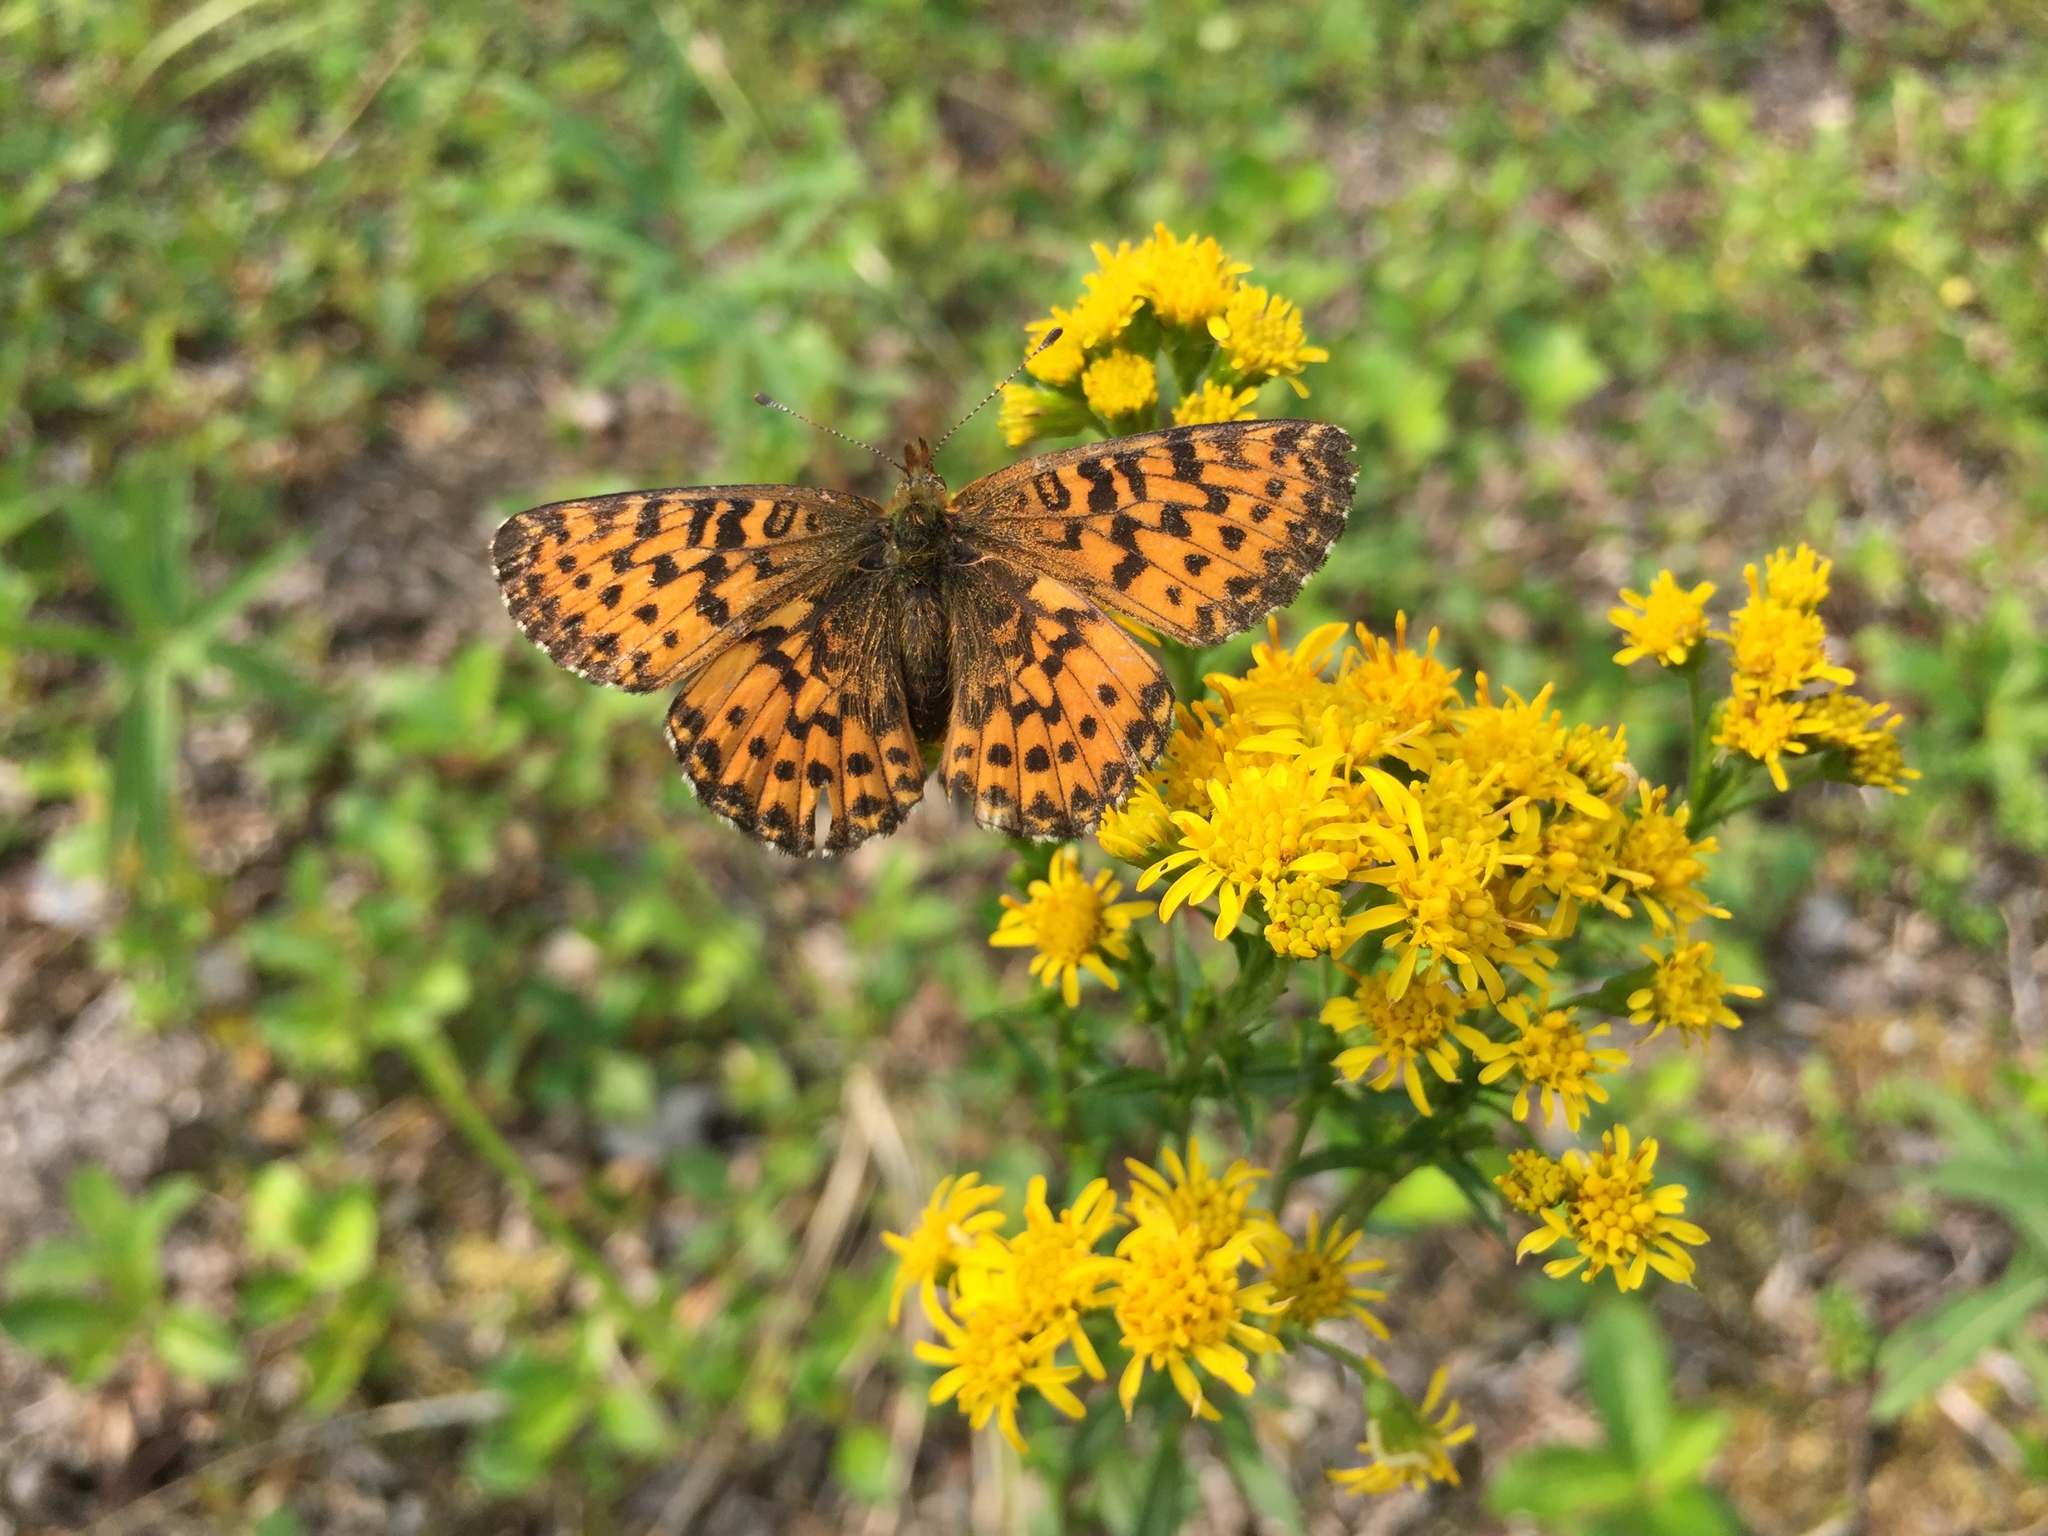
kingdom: Animalia
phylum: Arthropoda
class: Insecta
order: Lepidoptera
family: Nymphalidae
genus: Boloria
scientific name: Boloria chariclea
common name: Arctic fritillary
